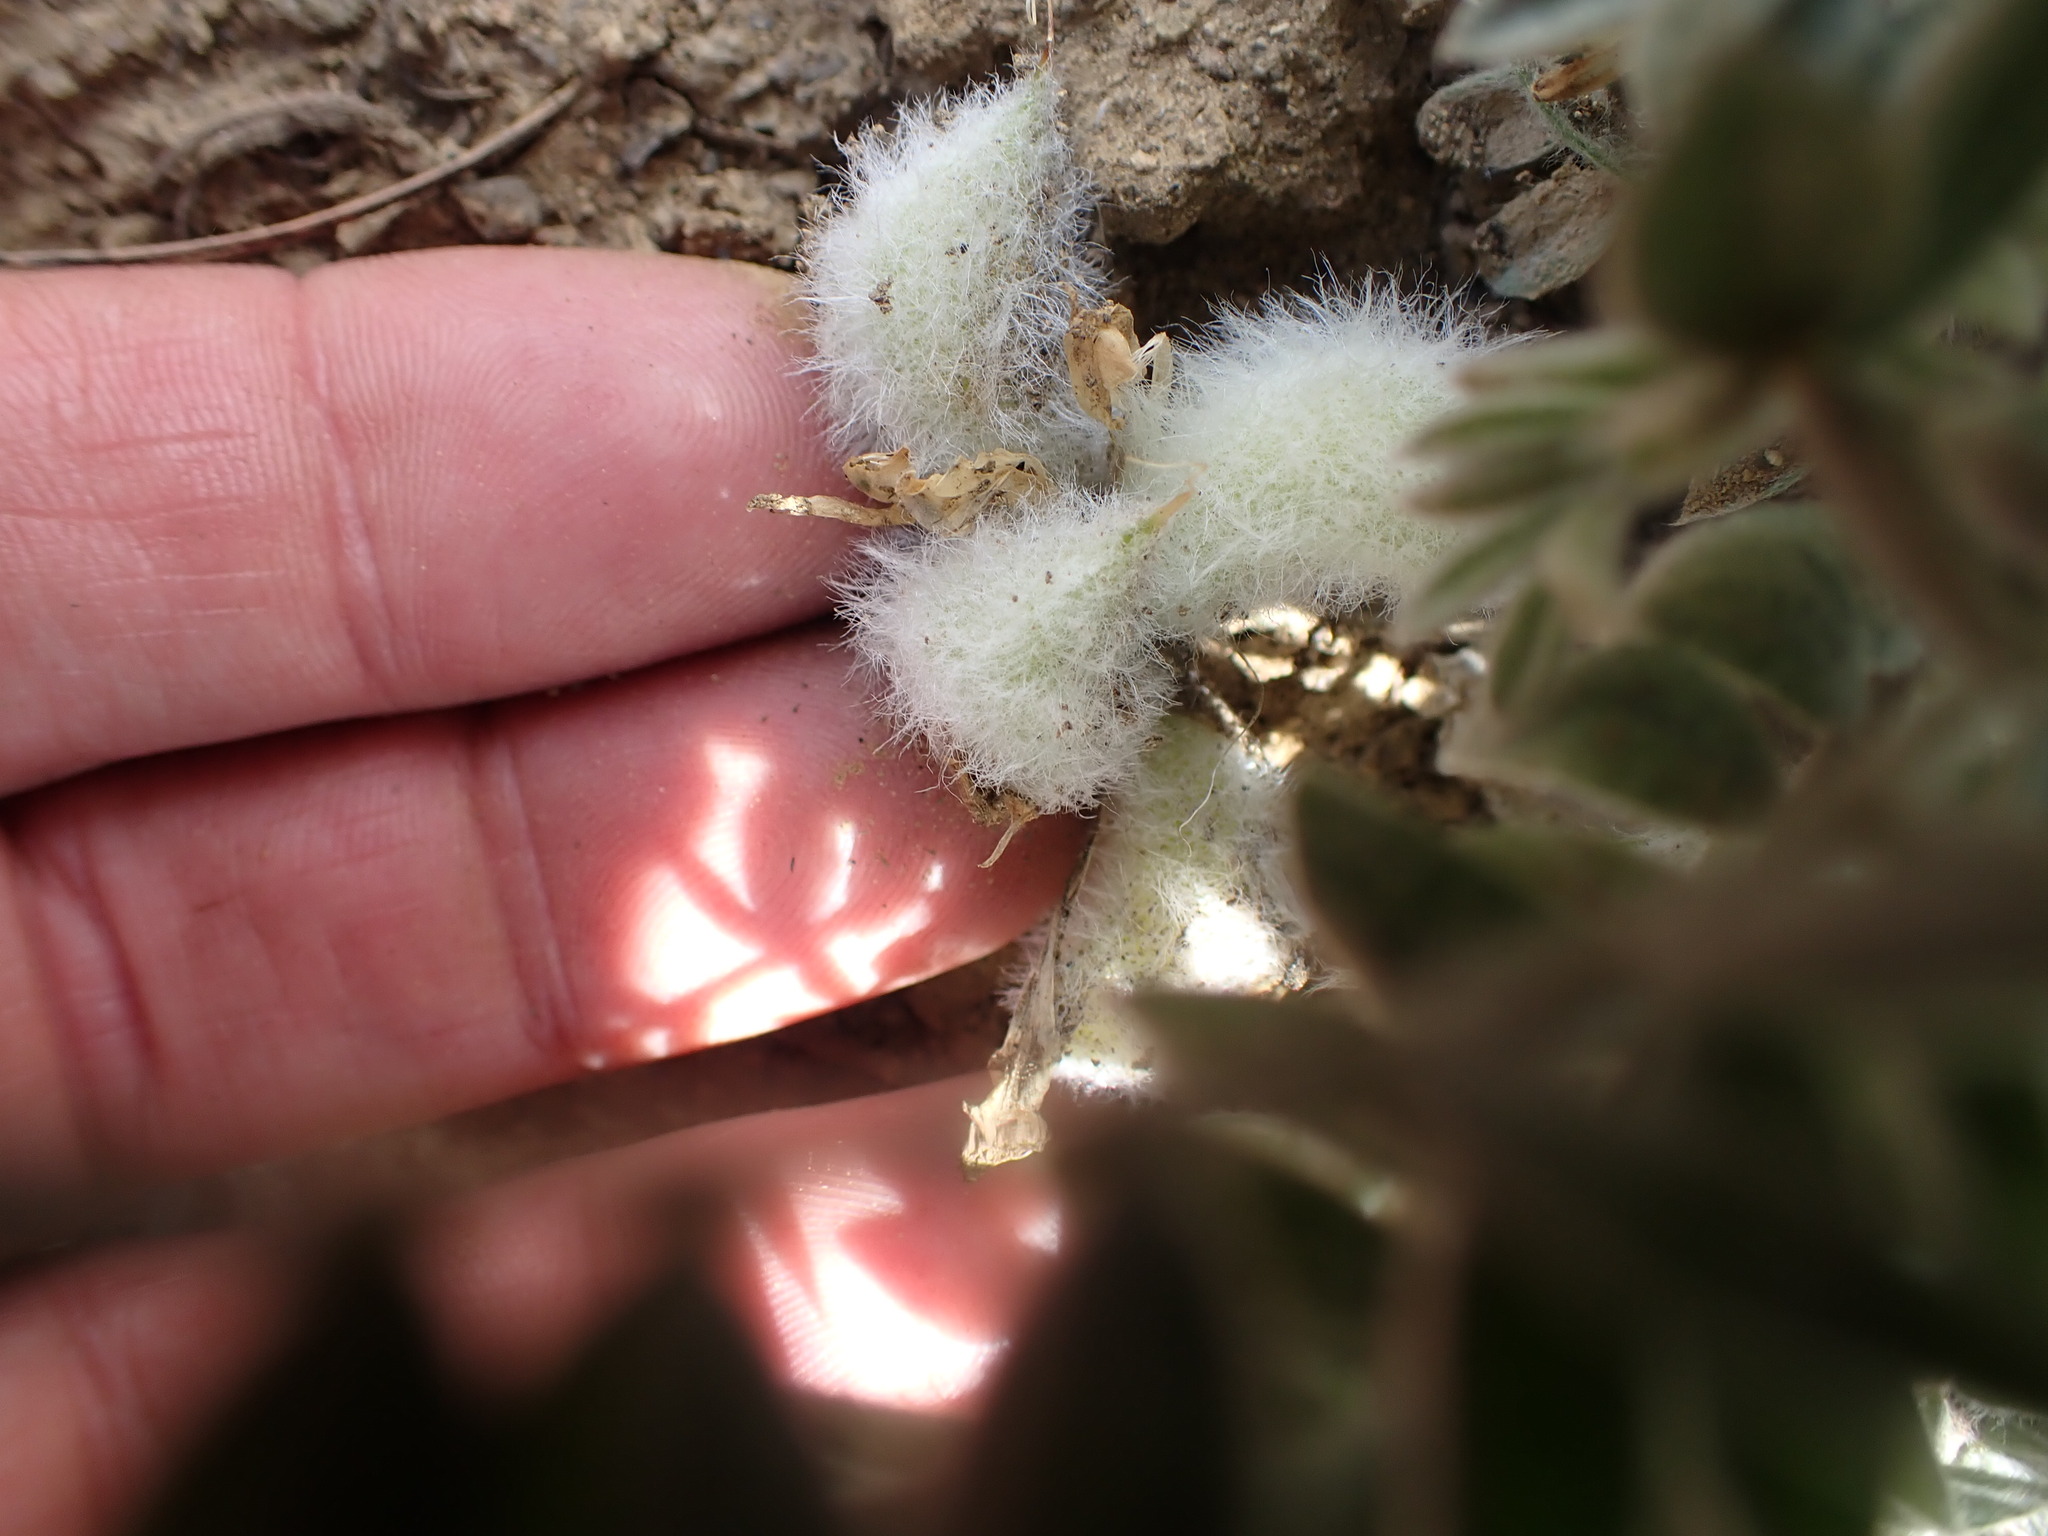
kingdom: Plantae
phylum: Tracheophyta
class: Magnoliopsida
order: Fabales
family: Fabaceae
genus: Astragalus
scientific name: Astragalus purshii
